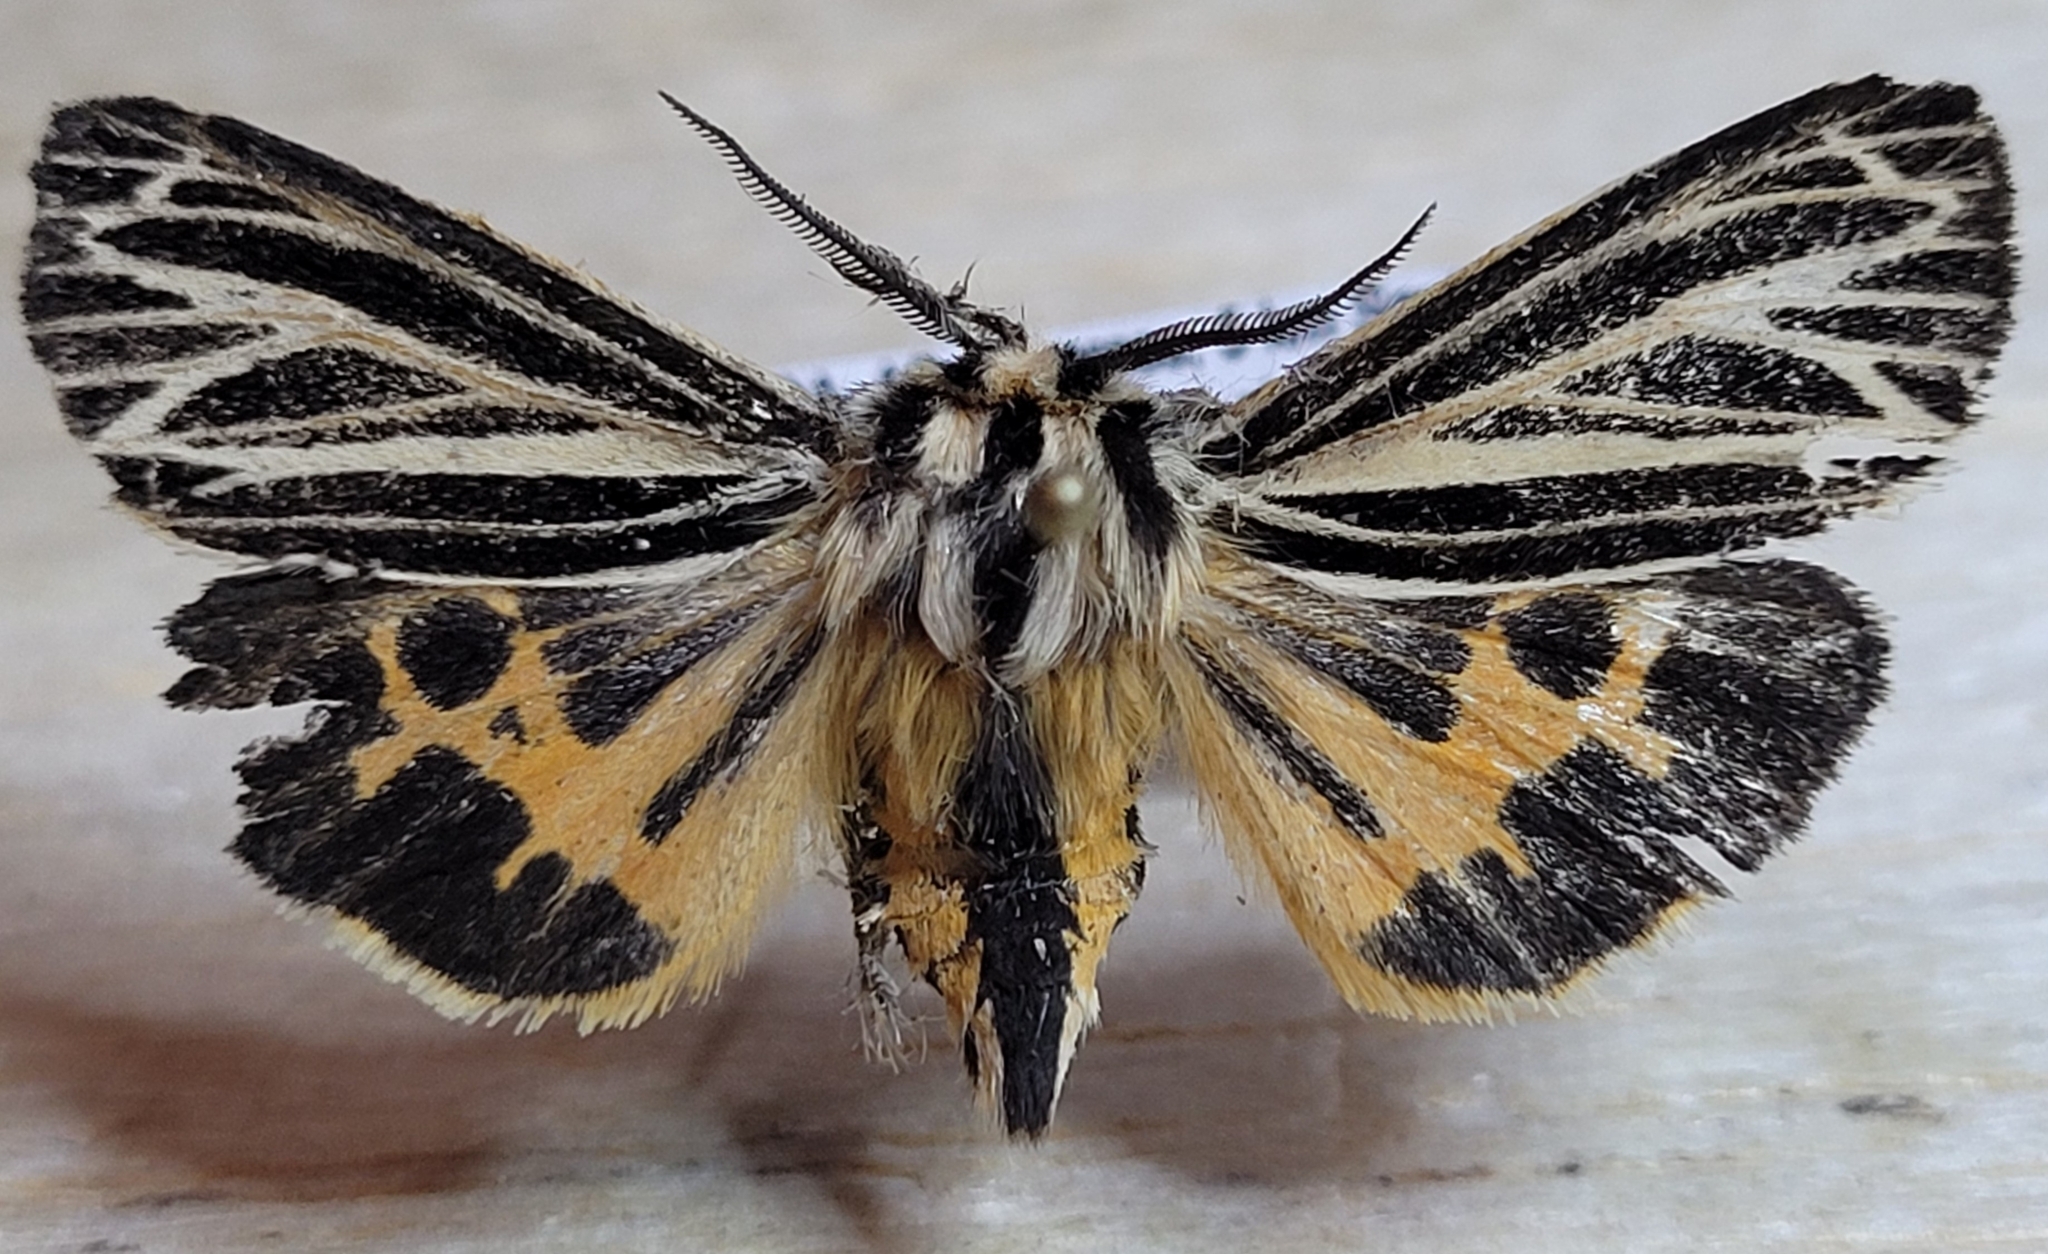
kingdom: Animalia
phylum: Arthropoda
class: Insecta
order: Lepidoptera
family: Erebidae
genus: Grammia
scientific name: Grammia virguncula
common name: Little tiger moth
